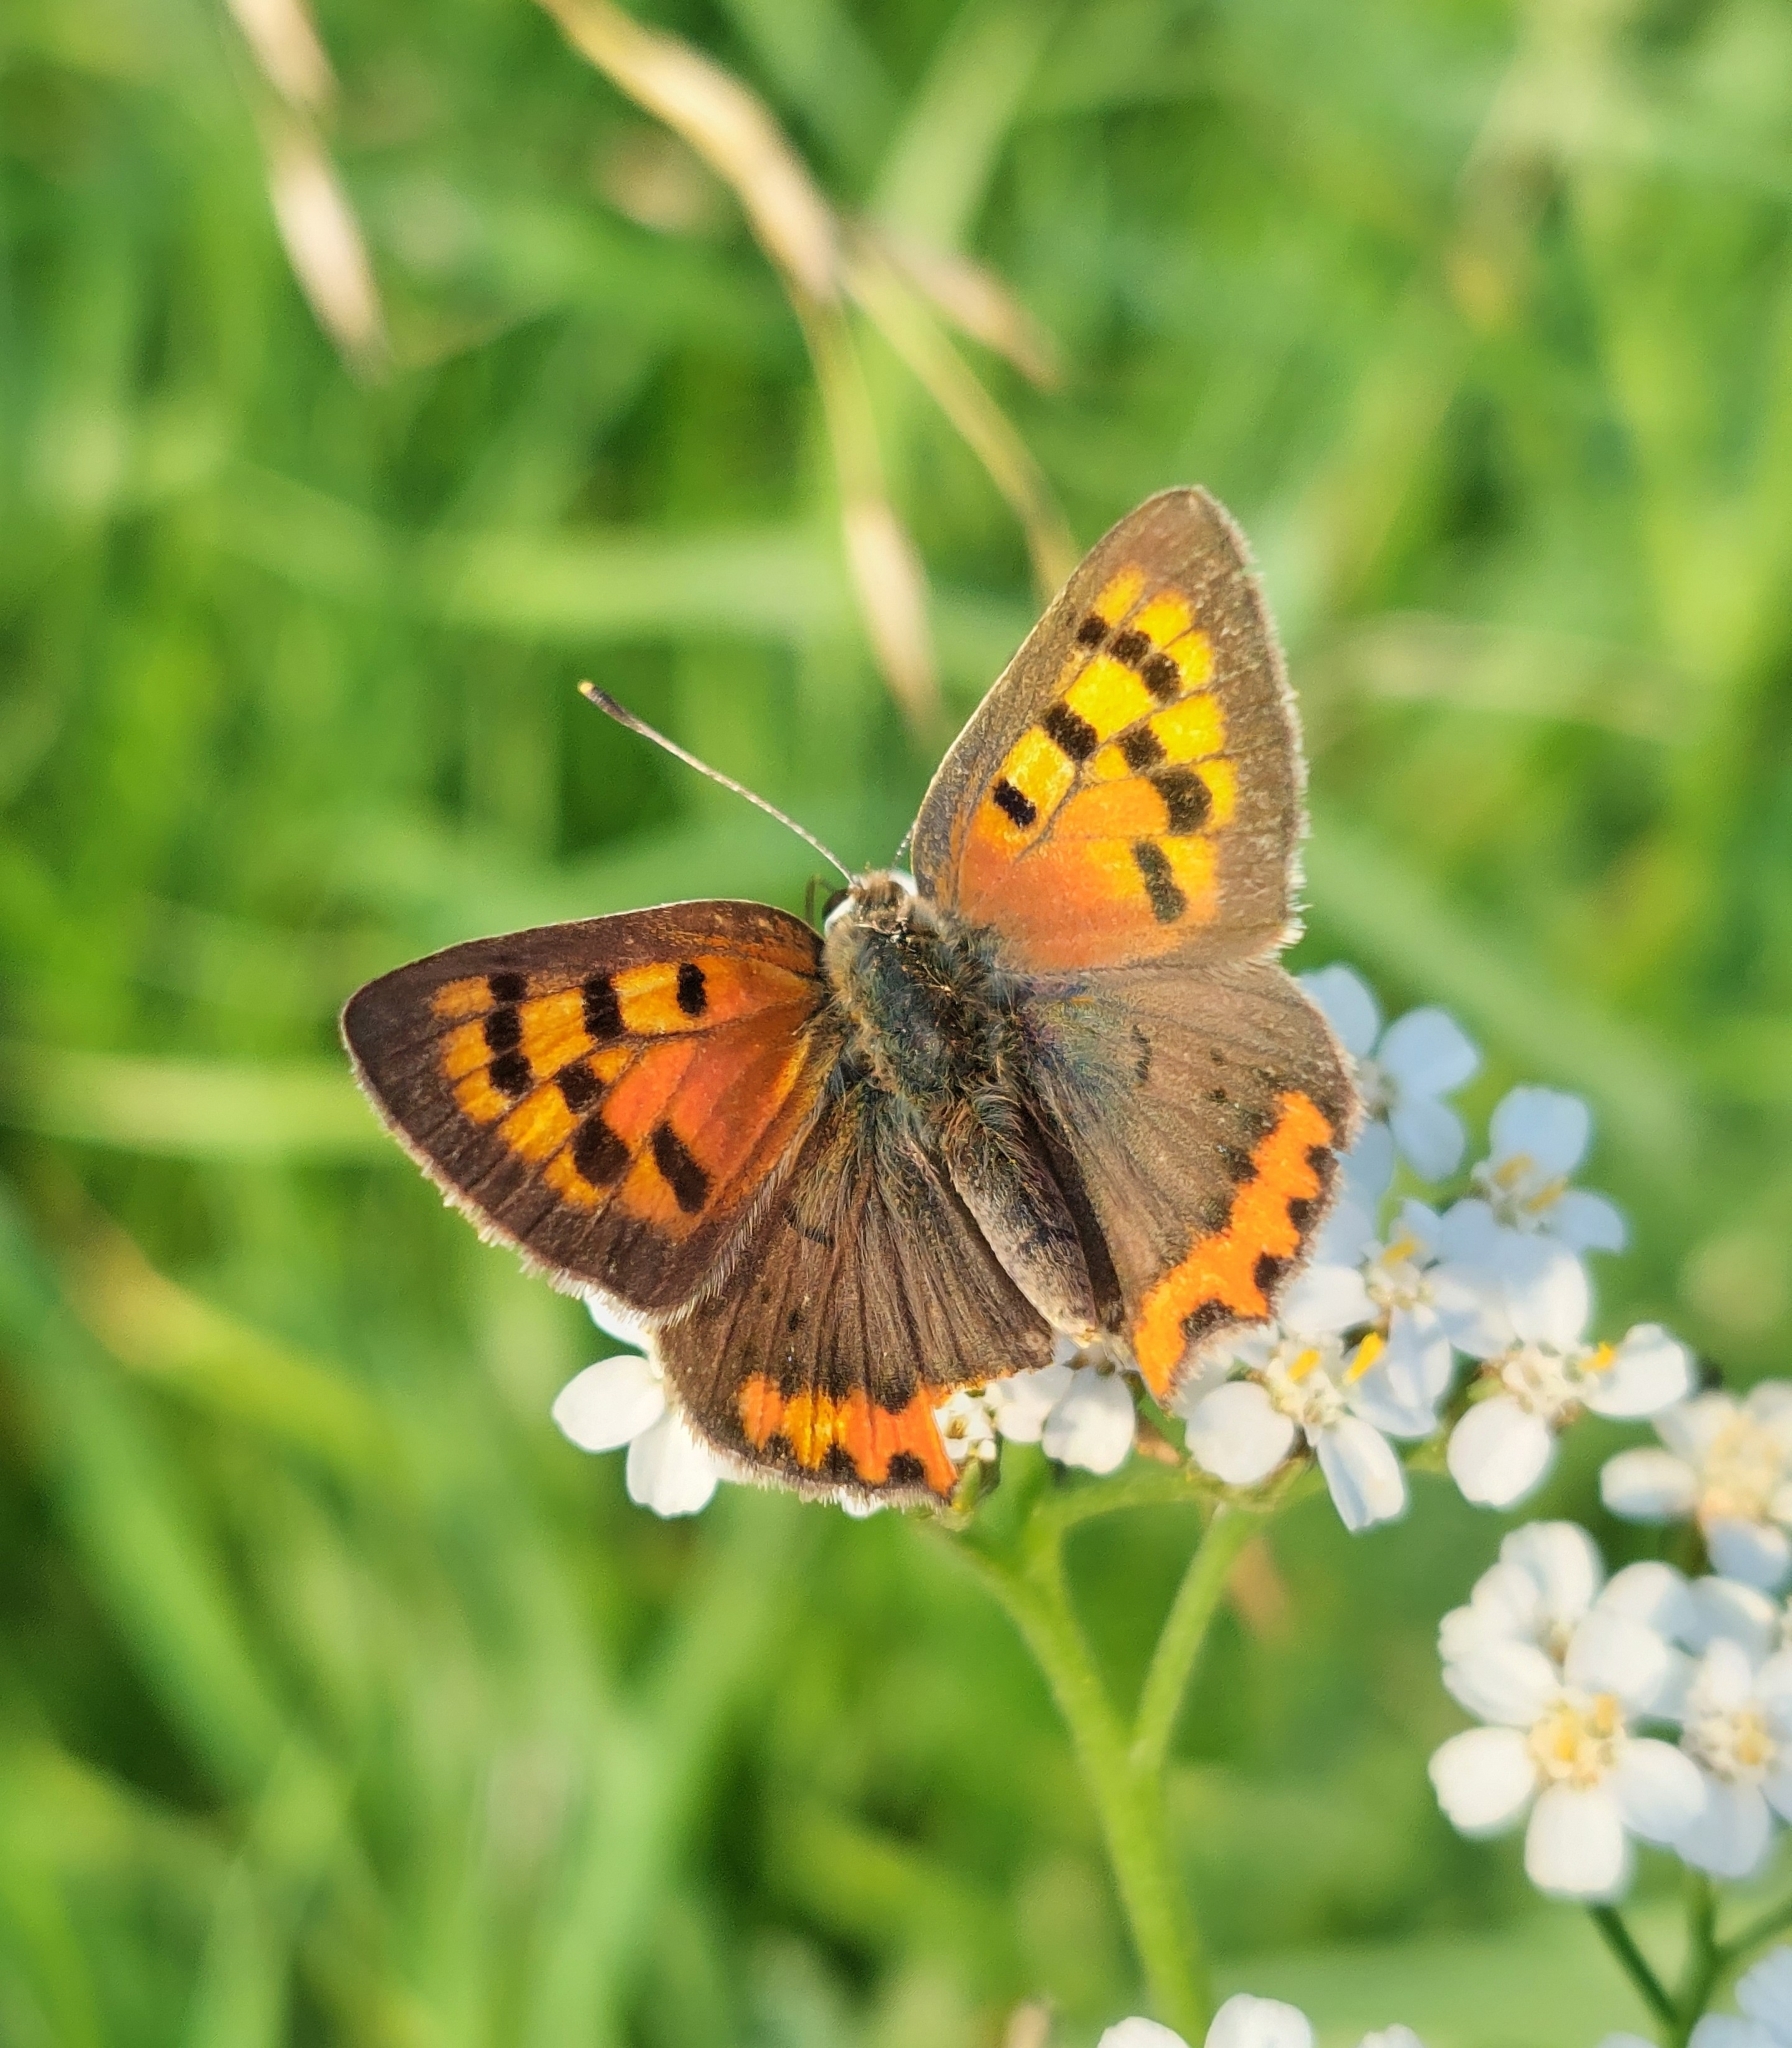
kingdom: Animalia
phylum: Arthropoda
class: Insecta
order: Lepidoptera
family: Lycaenidae
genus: Lycaena
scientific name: Lycaena phlaeas
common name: Small copper
